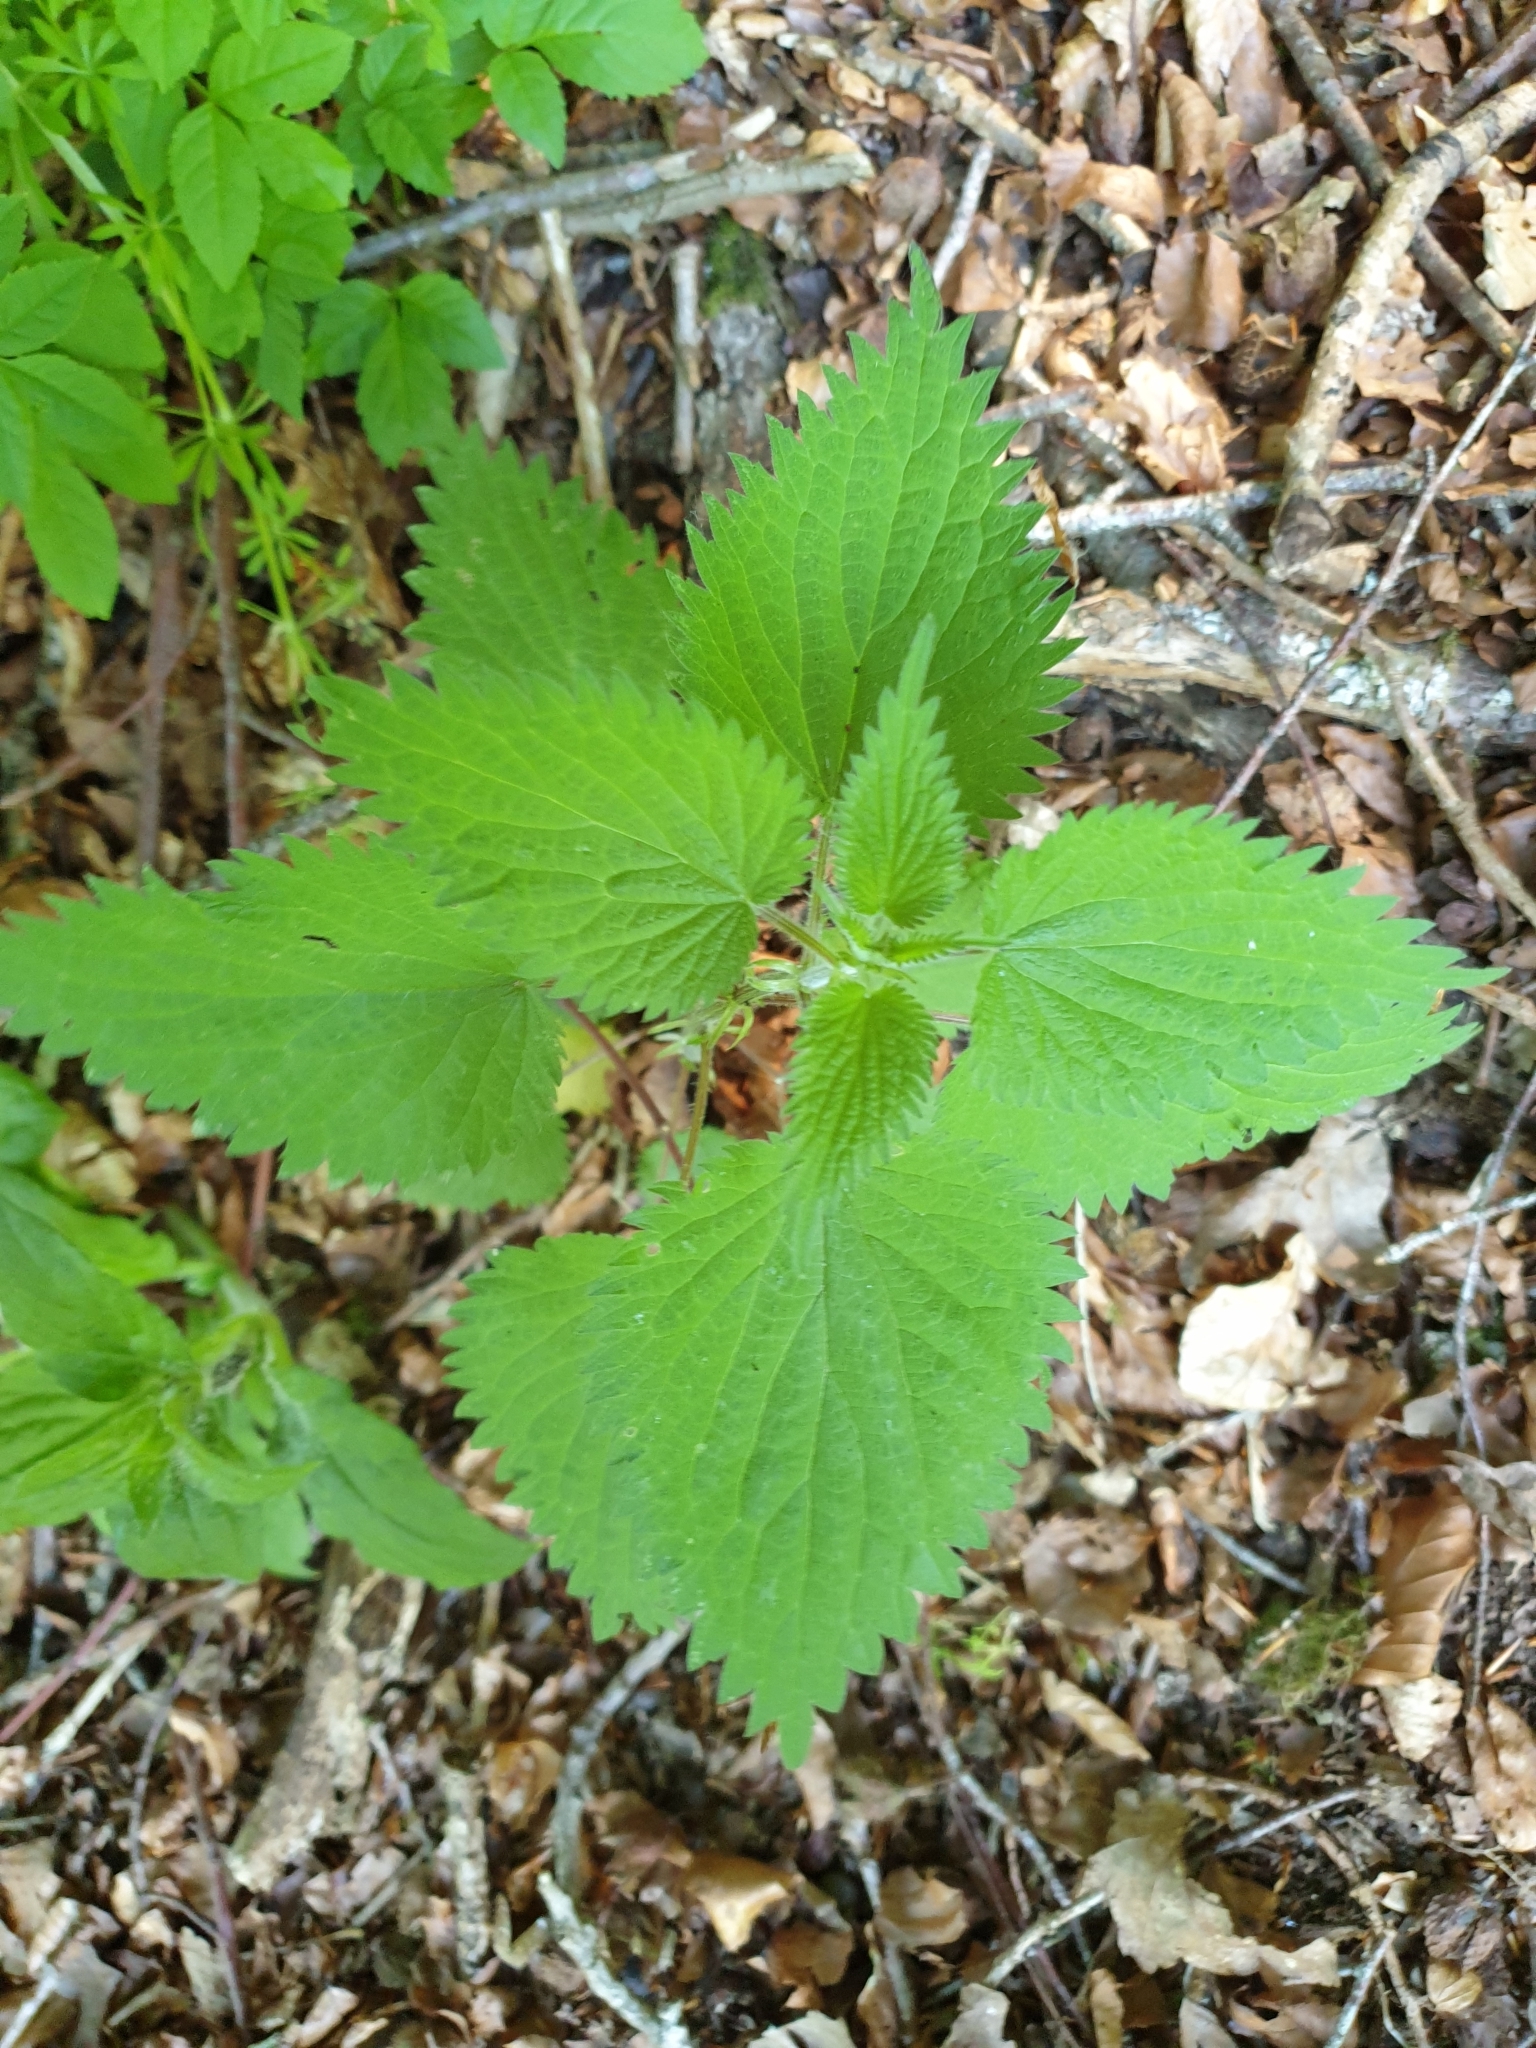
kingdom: Plantae
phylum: Tracheophyta
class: Magnoliopsida
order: Rosales
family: Urticaceae
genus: Urtica
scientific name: Urtica dioica
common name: Common nettle
